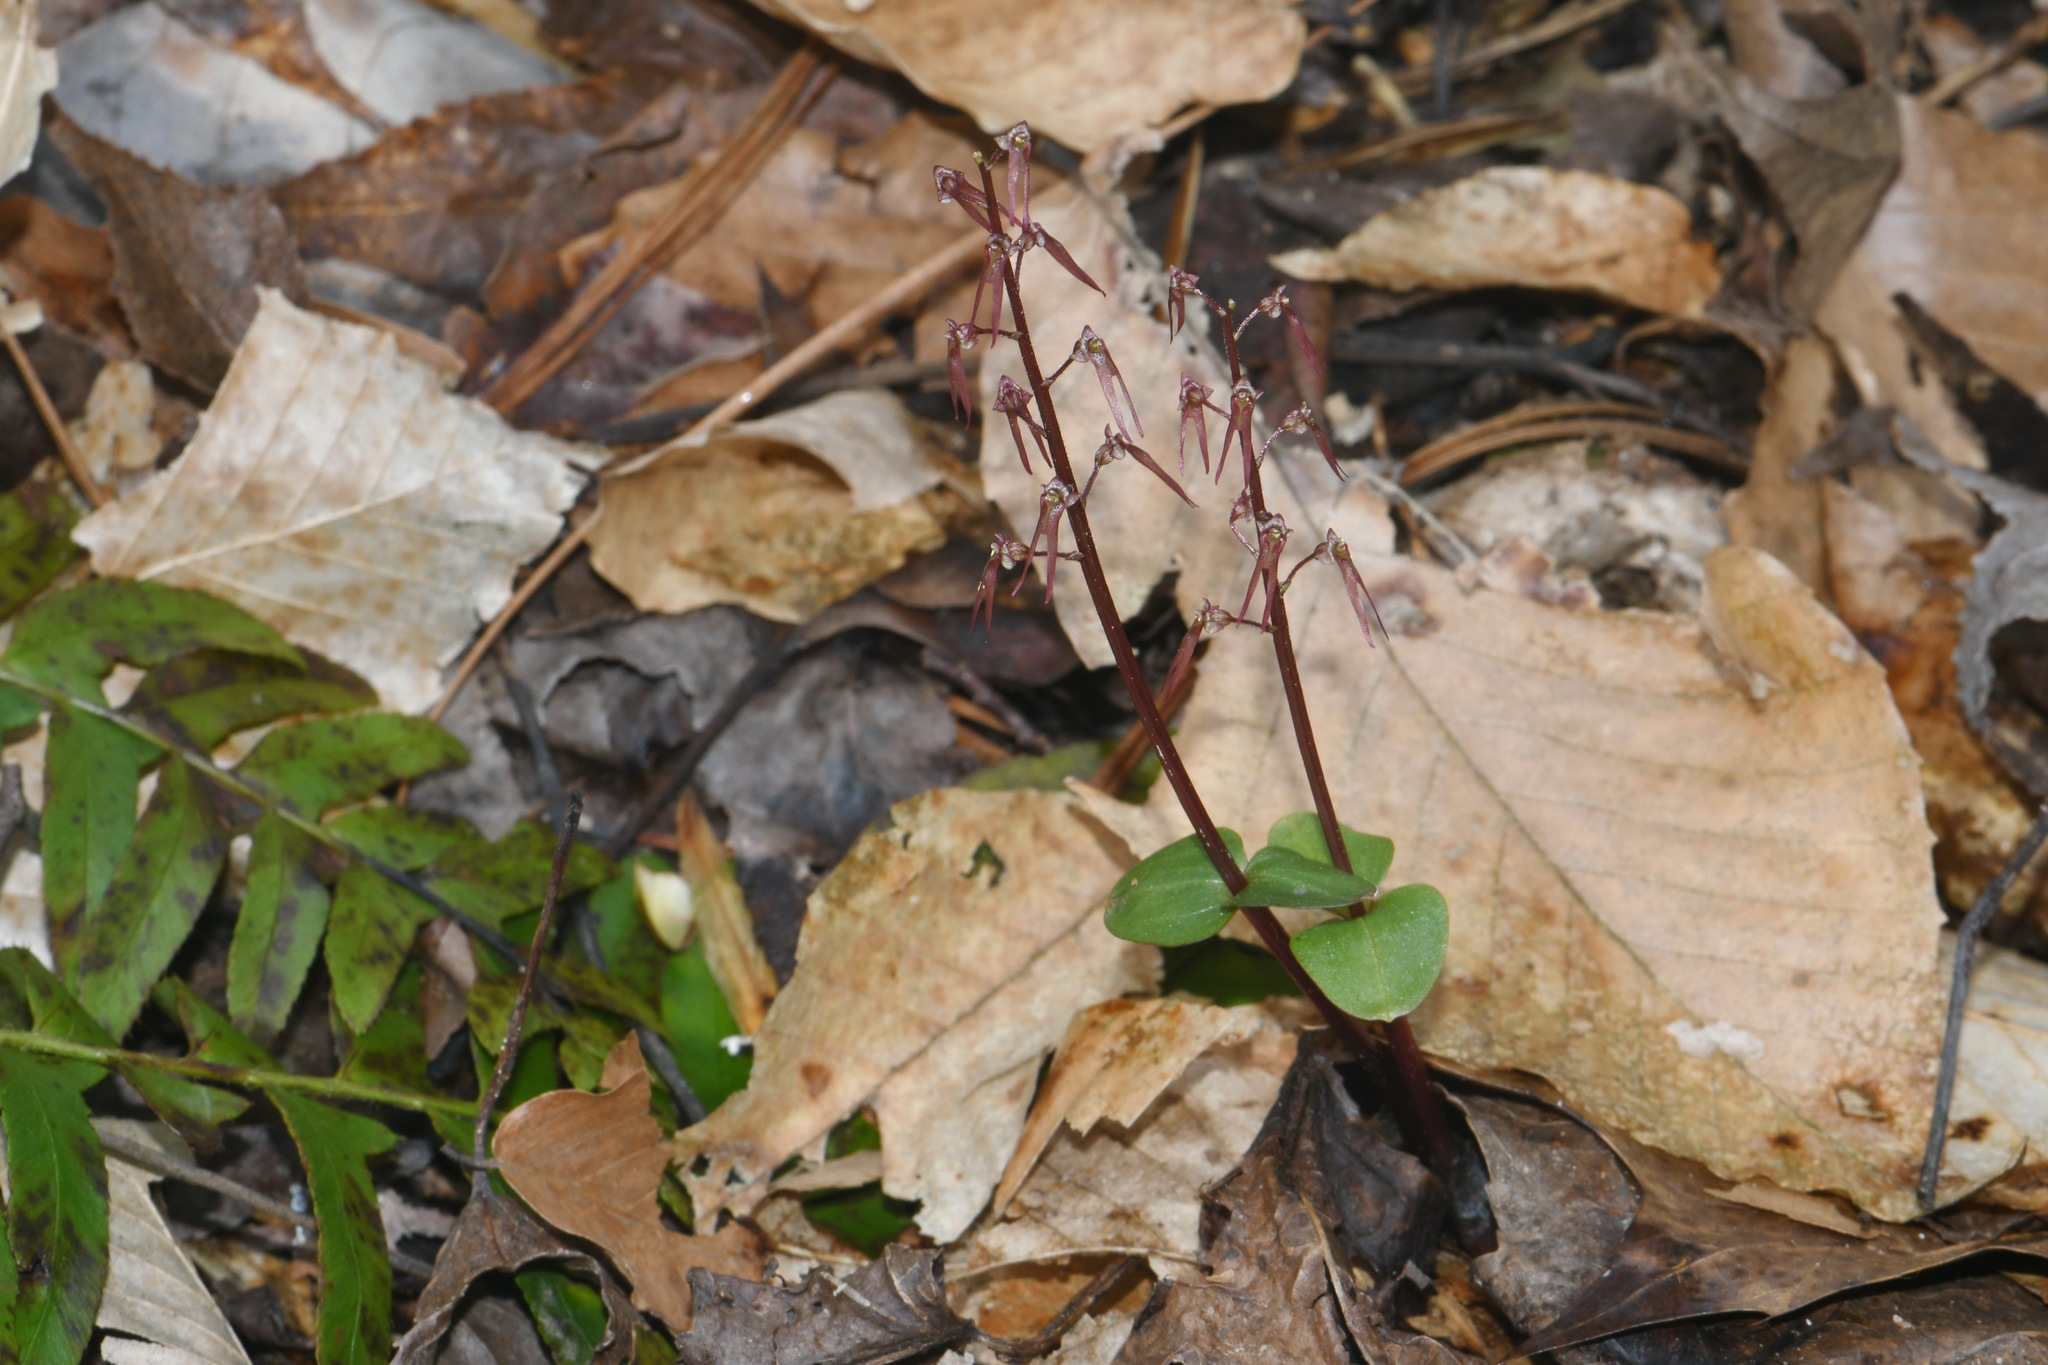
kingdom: Plantae
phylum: Tracheophyta
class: Liliopsida
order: Asparagales
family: Orchidaceae
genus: Neottia
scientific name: Neottia bifolia
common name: Southern twayblade
